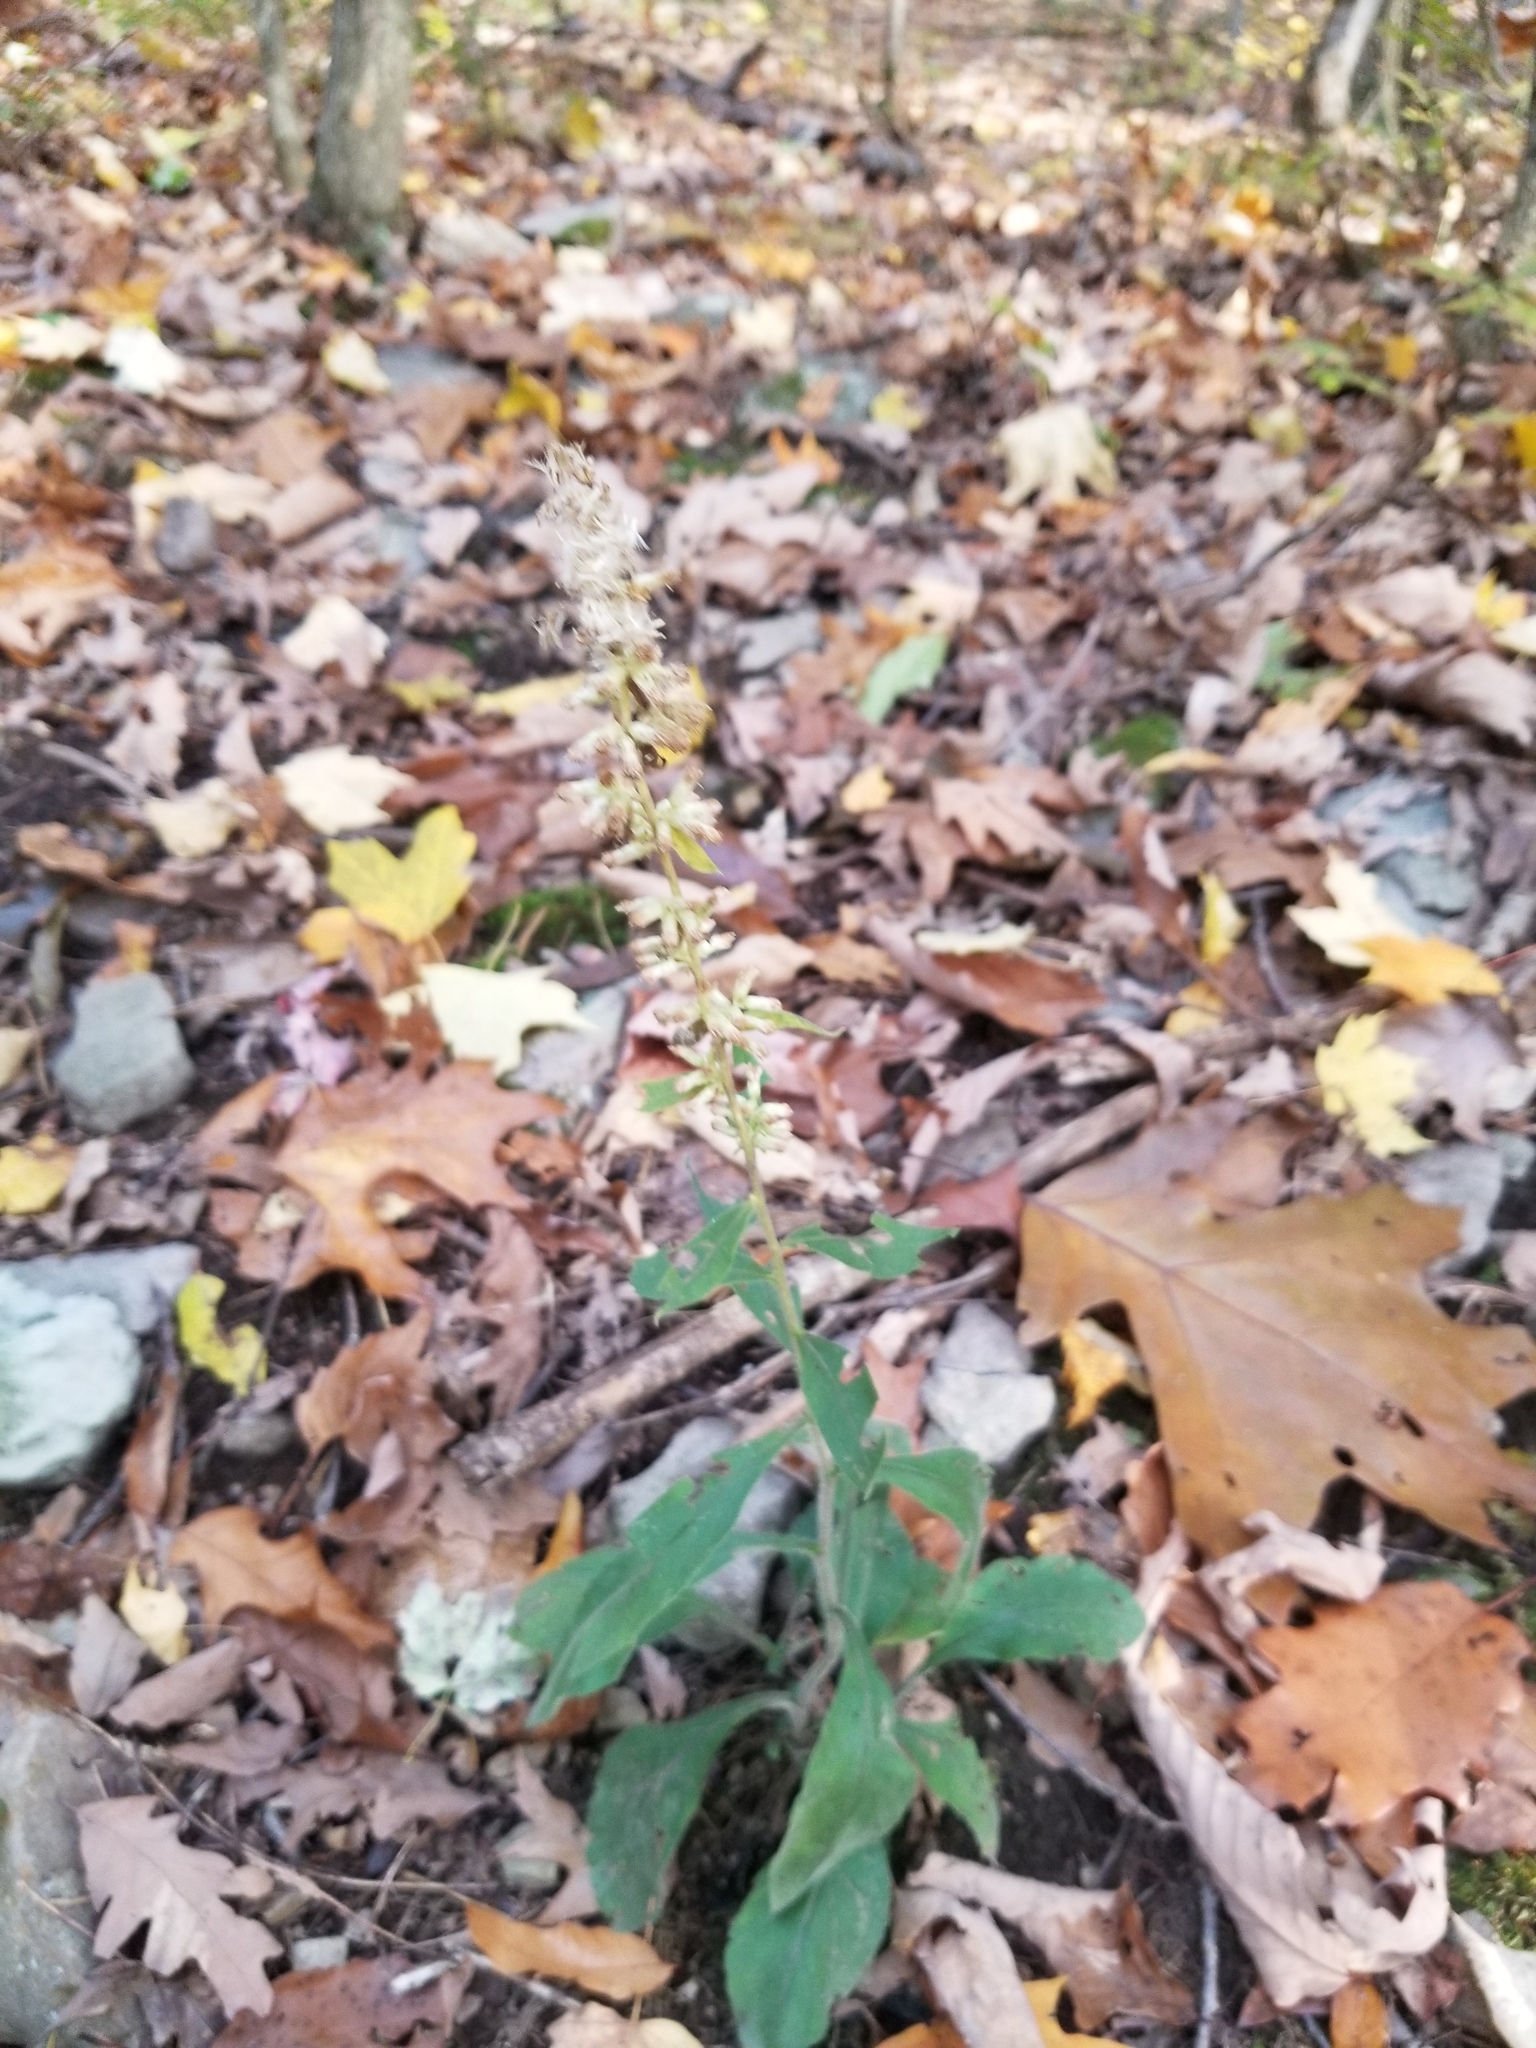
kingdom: Plantae
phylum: Tracheophyta
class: Magnoliopsida
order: Asterales
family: Asteraceae
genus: Solidago
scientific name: Solidago bicolor
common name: Silverrod
